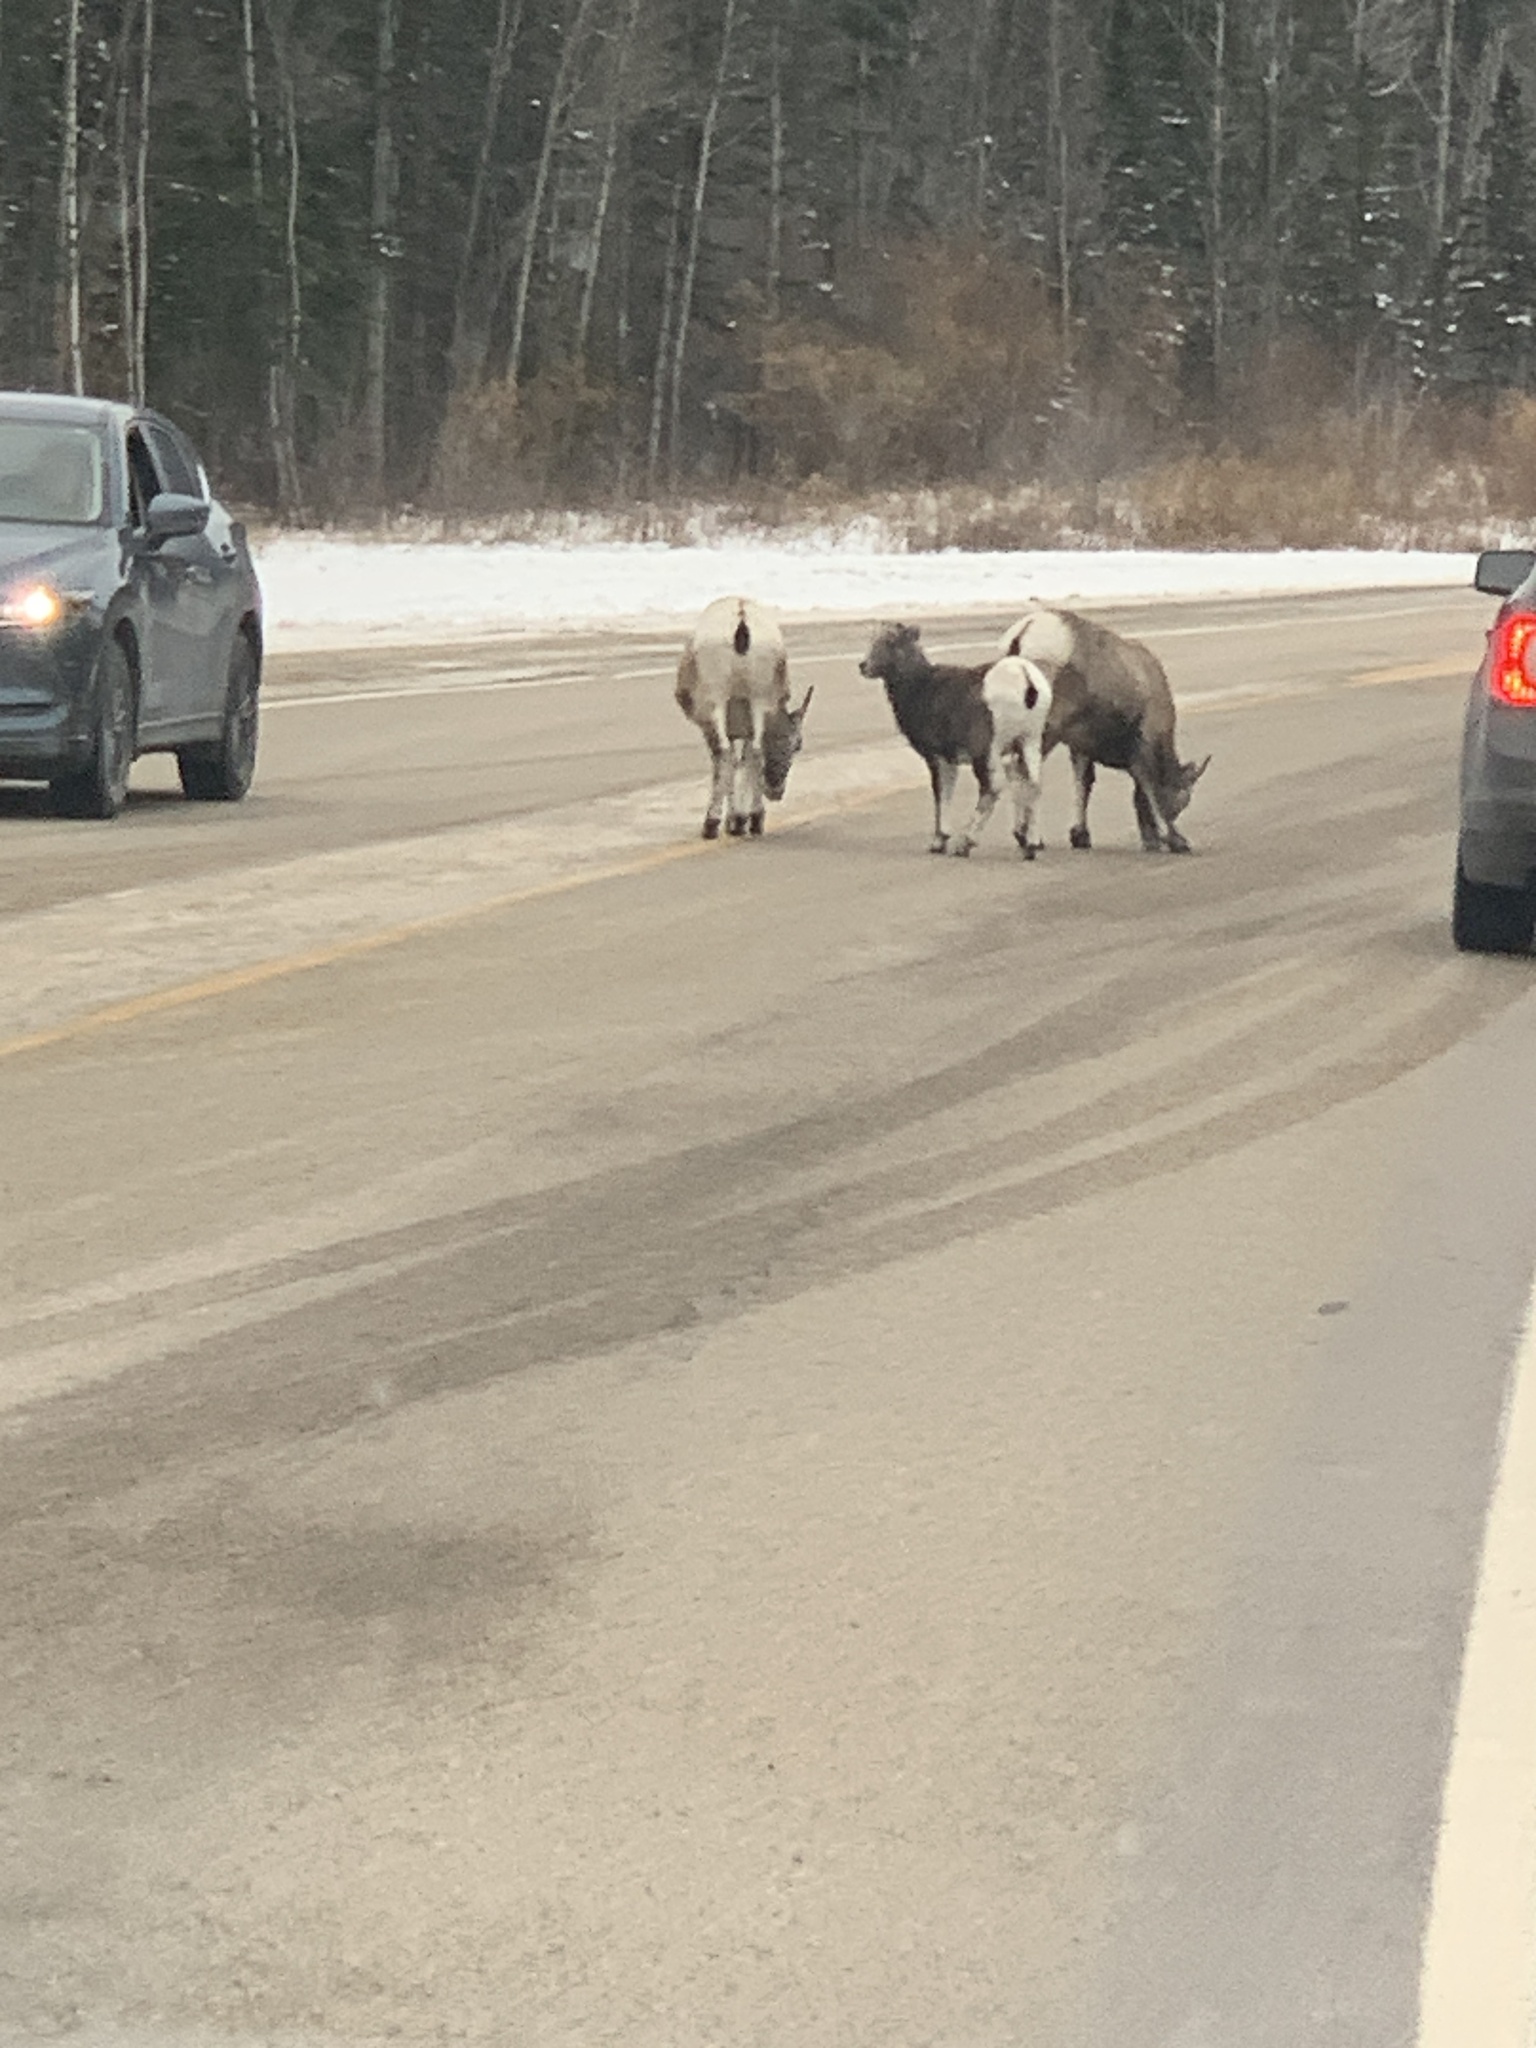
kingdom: Animalia
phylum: Chordata
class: Mammalia
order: Artiodactyla
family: Bovidae
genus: Ovis
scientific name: Ovis canadensis
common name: Bighorn sheep
